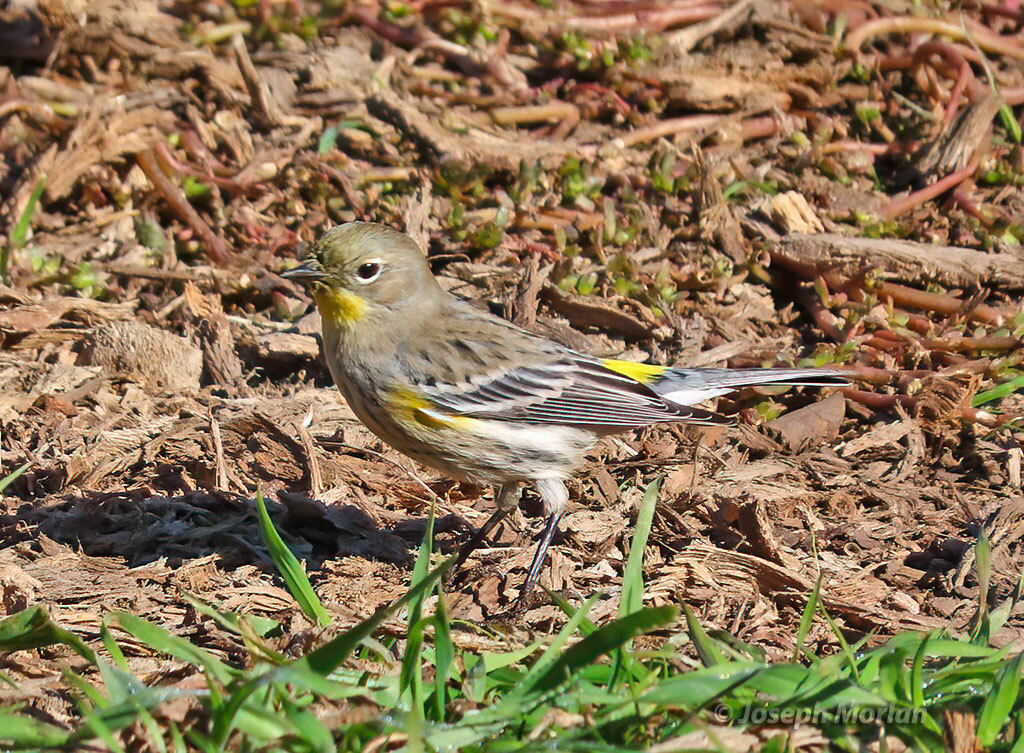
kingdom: Animalia
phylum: Chordata
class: Aves
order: Passeriformes
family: Parulidae
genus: Setophaga
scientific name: Setophaga coronata
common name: Myrtle warbler
